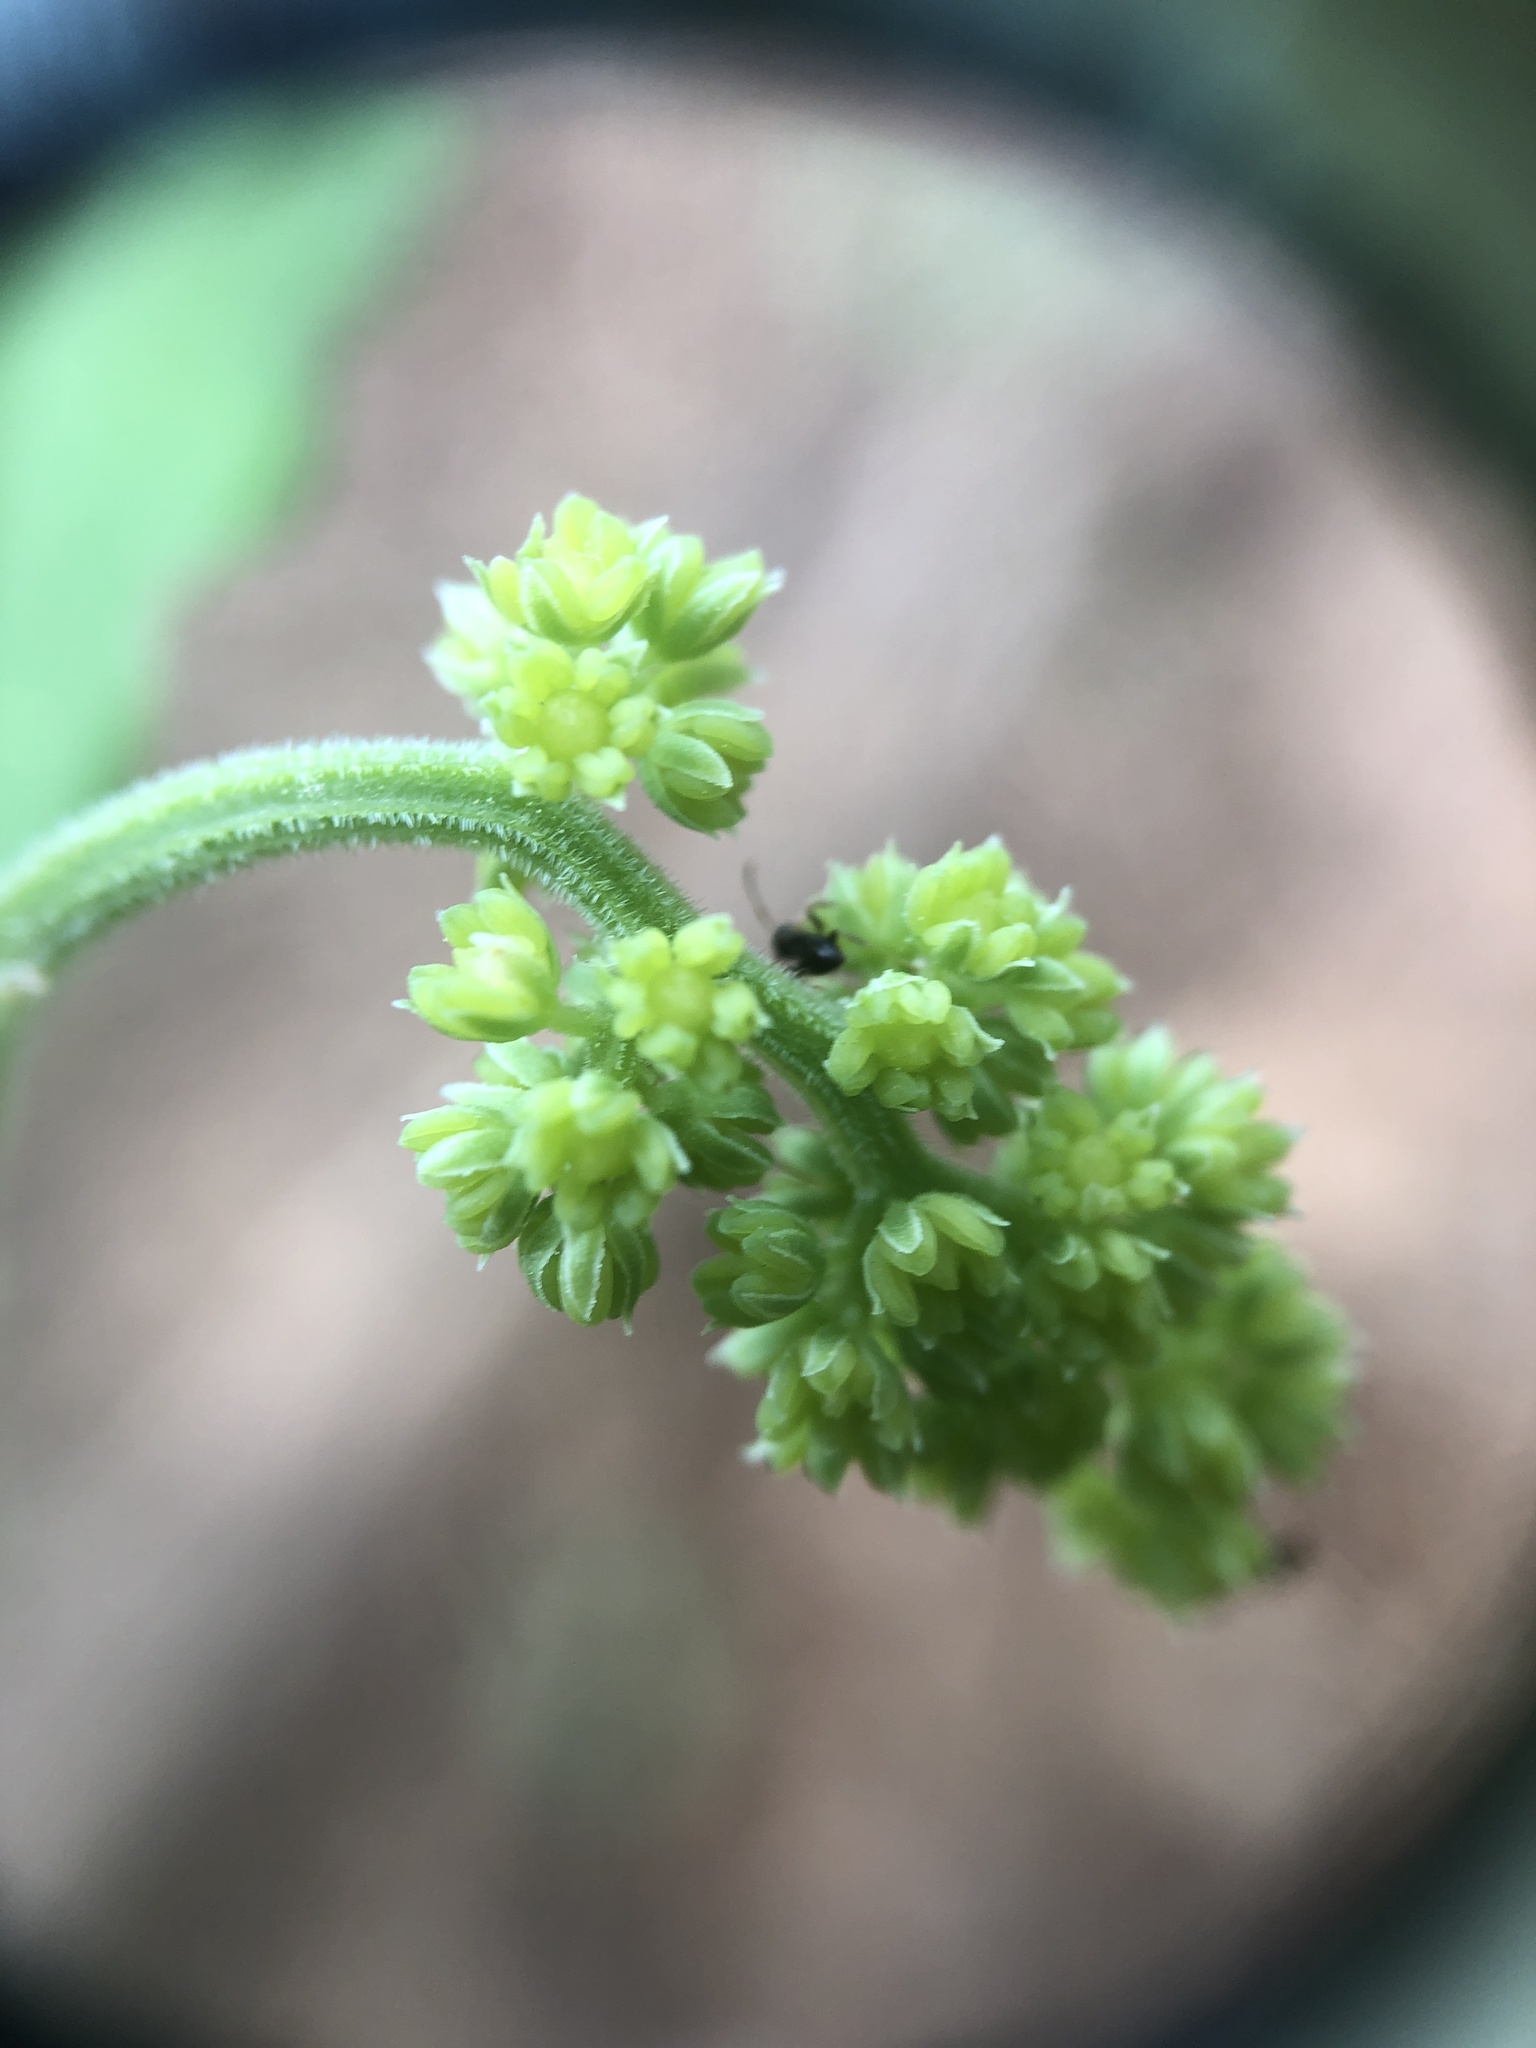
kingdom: Plantae
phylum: Tracheophyta
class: Liliopsida
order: Asparagales
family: Asparagaceae
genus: Maianthemum
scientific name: Maianthemum racemosum
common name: False spikenard
